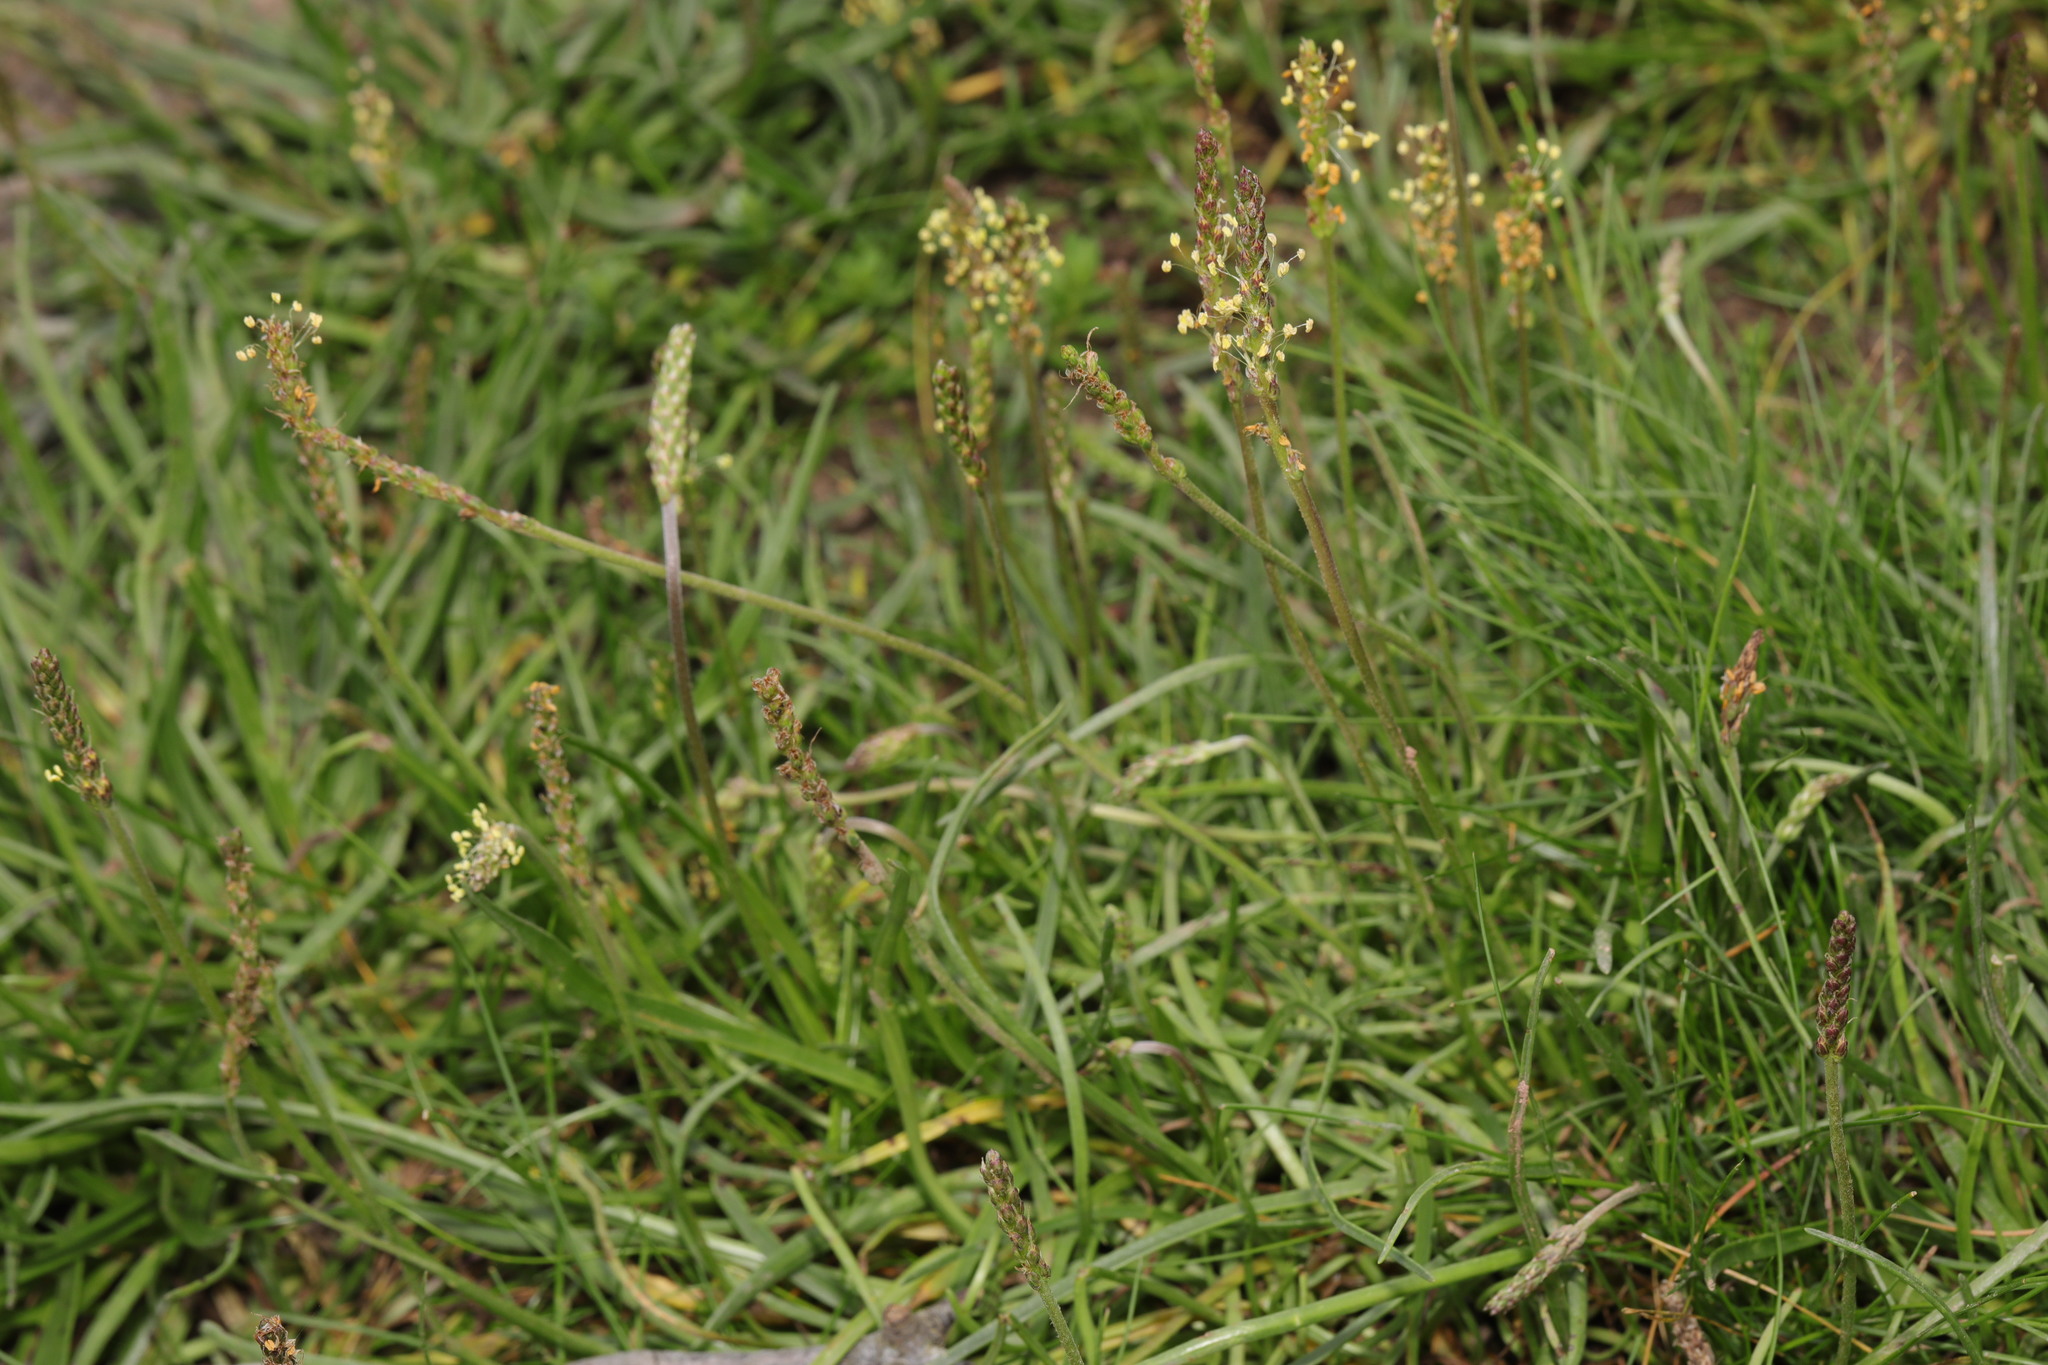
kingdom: Plantae
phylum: Tracheophyta
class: Magnoliopsida
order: Lamiales
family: Plantaginaceae
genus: Plantago
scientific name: Plantago maritima
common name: Sea plantain
